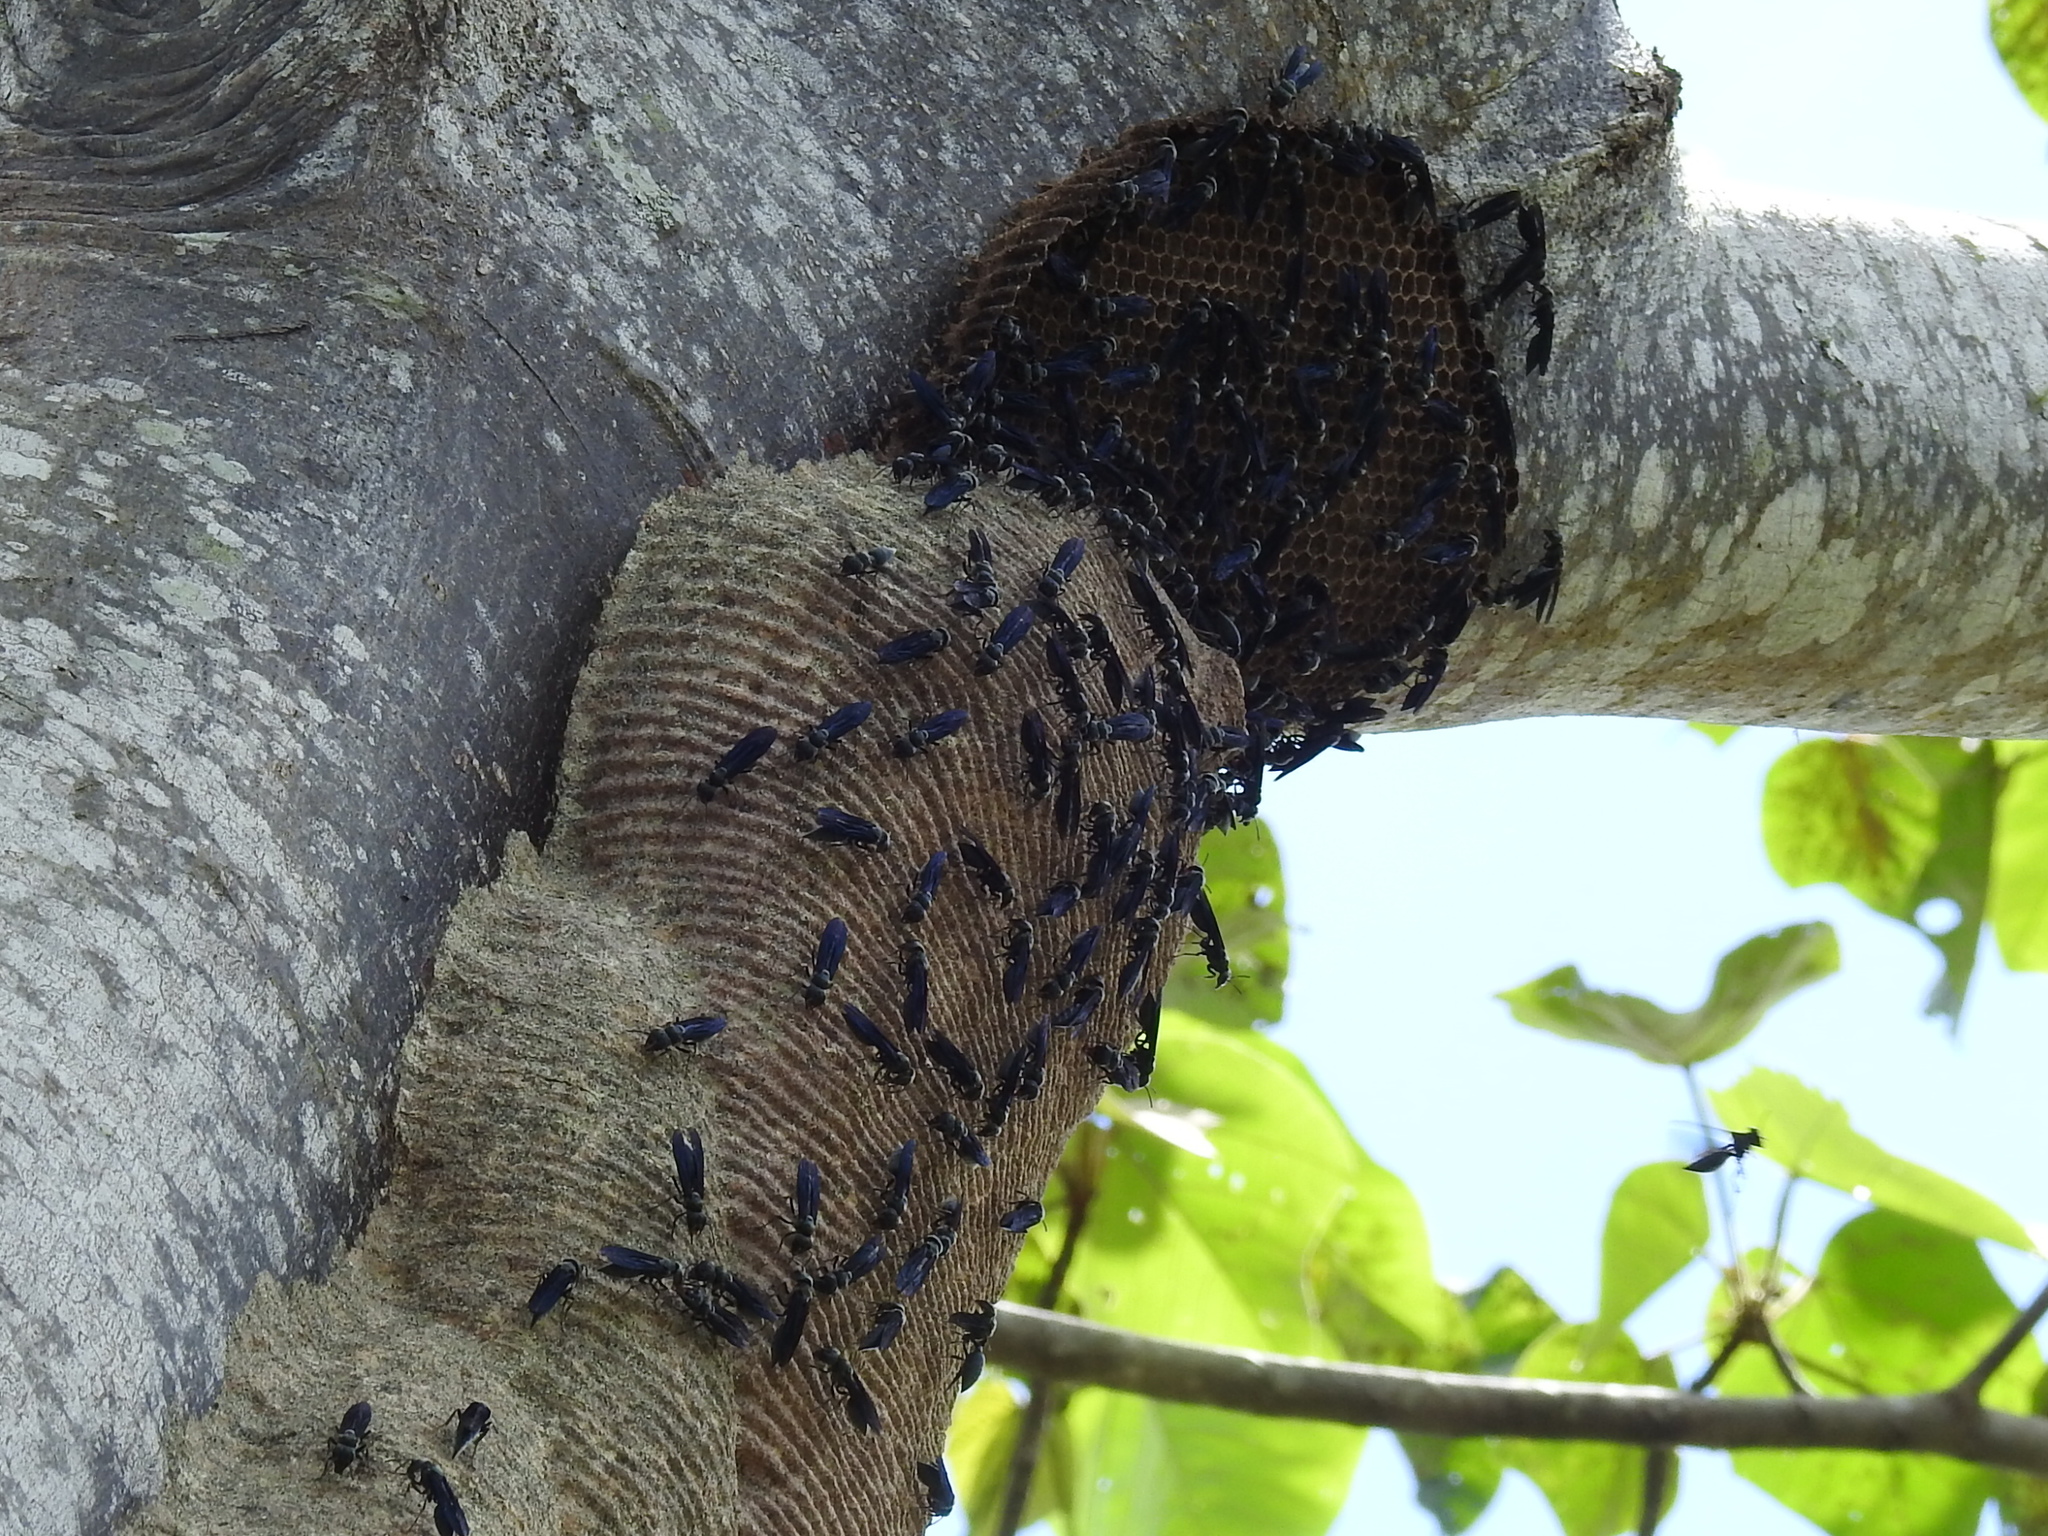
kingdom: Animalia
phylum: Arthropoda
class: Insecta
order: Hymenoptera
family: Vespidae
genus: Synoeca
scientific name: Synoeca septentrionalis
